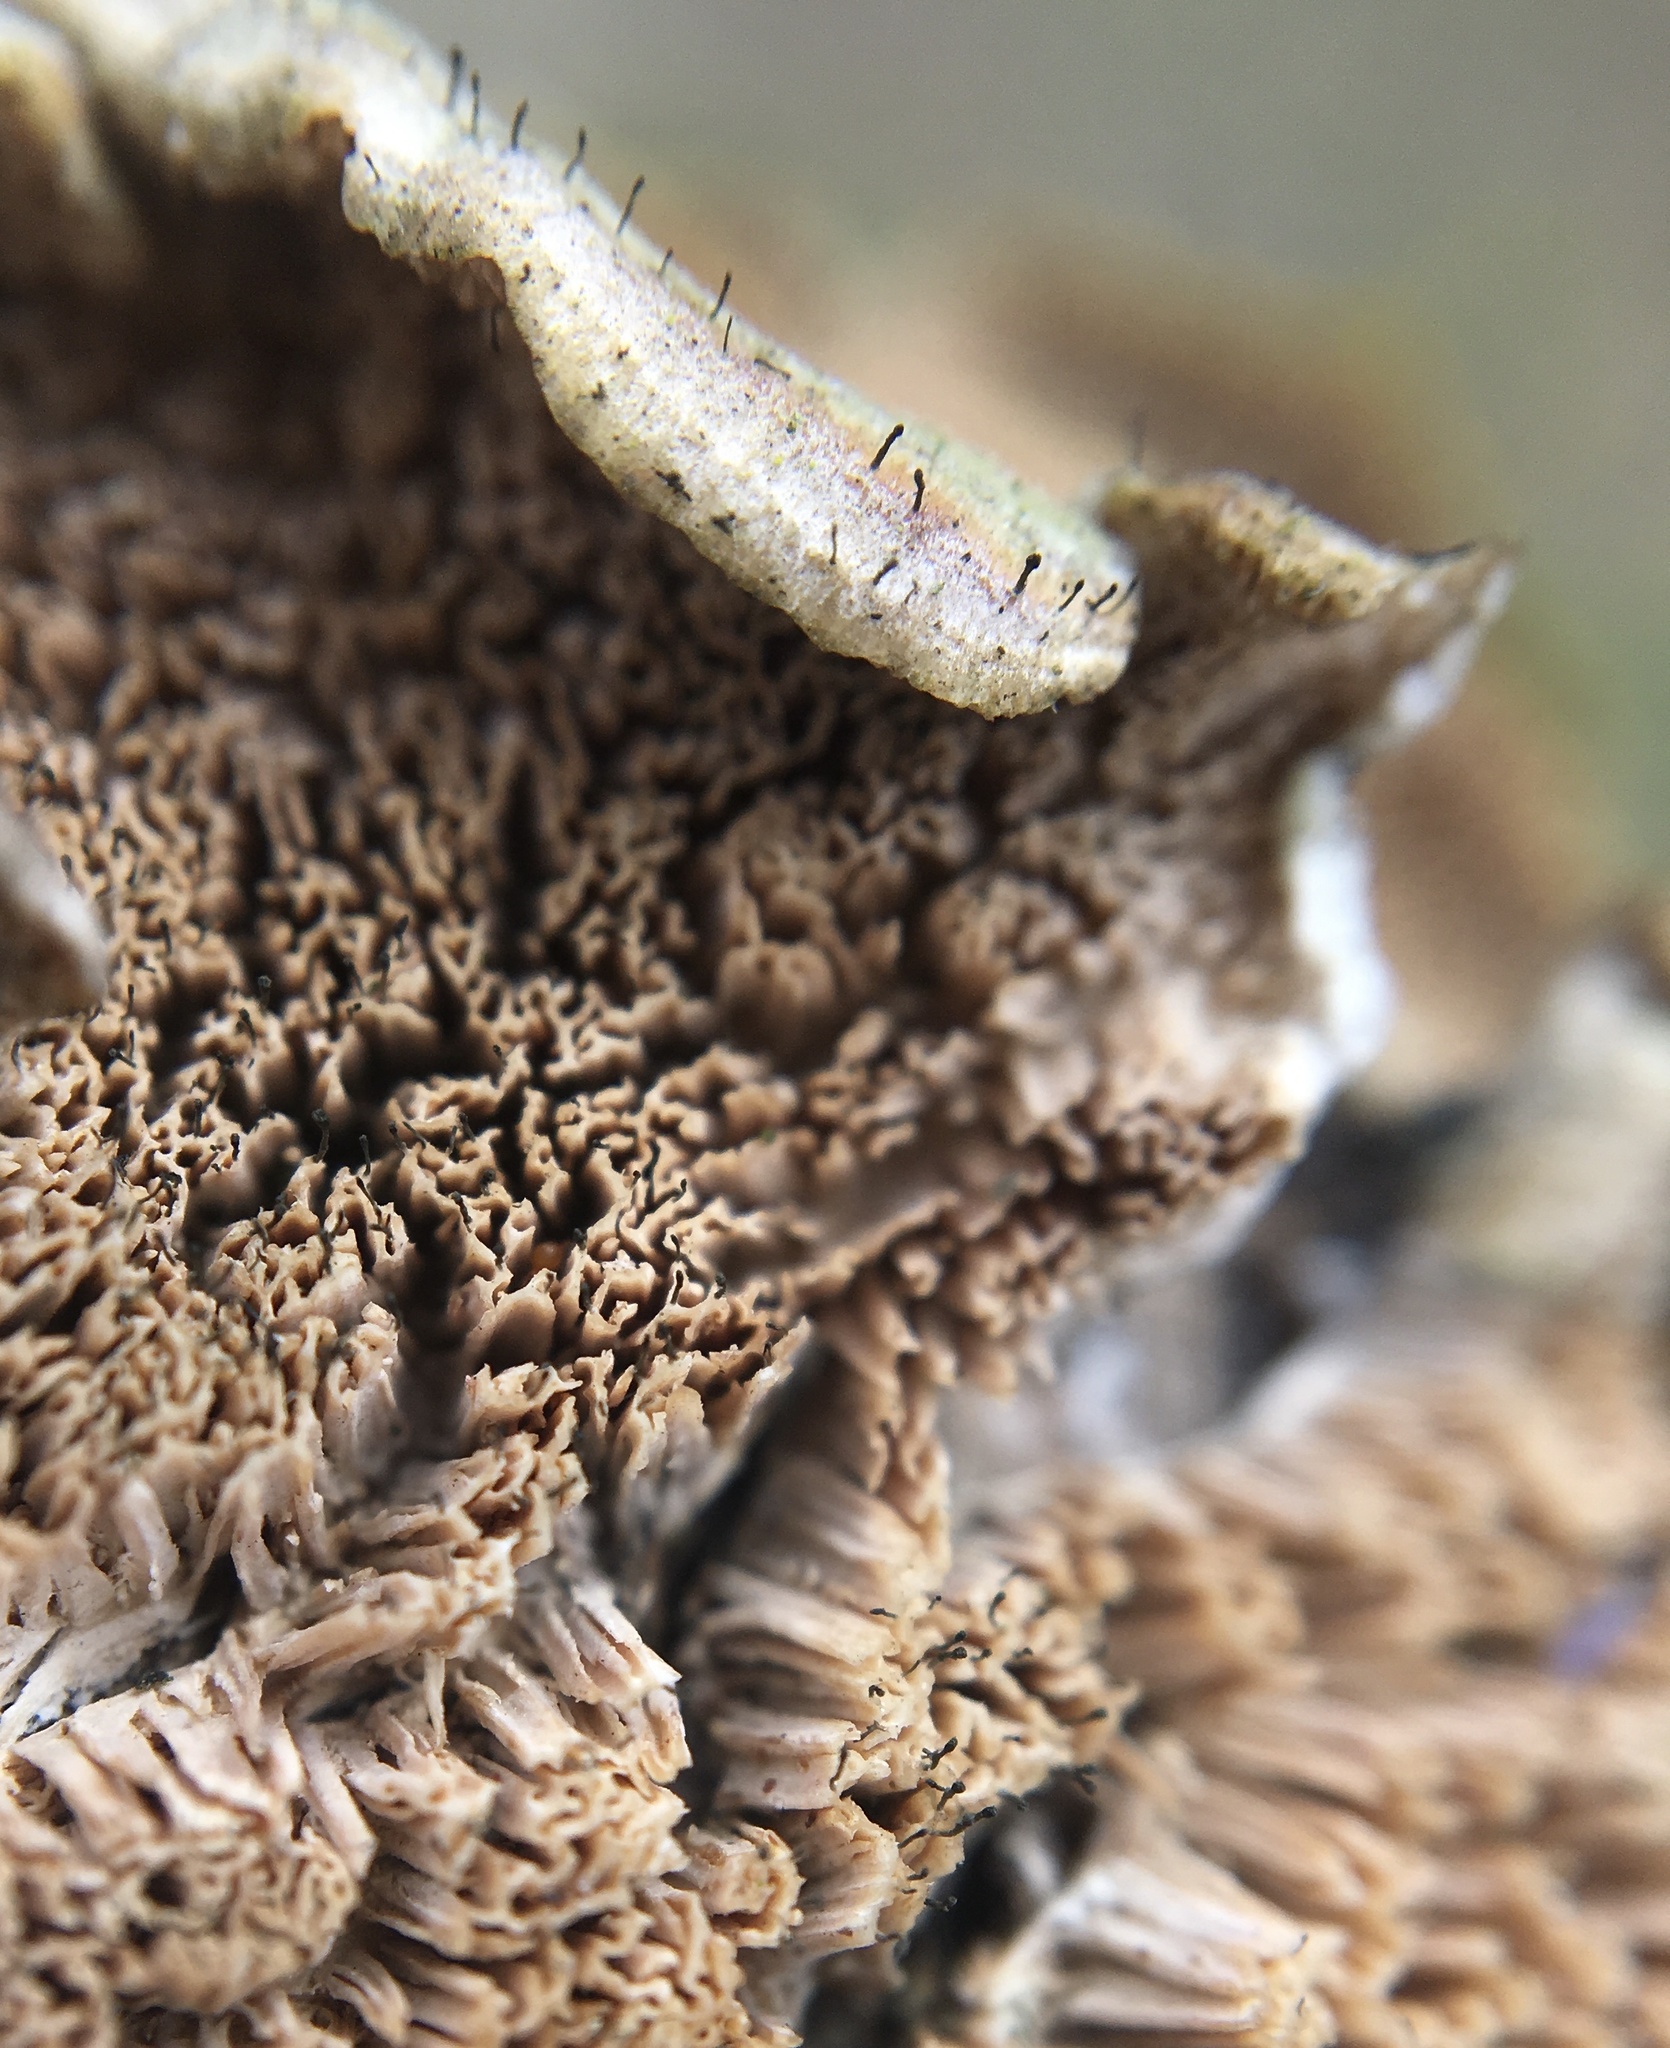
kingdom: Fungi
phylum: Ascomycota
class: Eurotiomycetes
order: Mycocaliciales
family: Mycocaliciaceae
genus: Phaeocalicium
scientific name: Phaeocalicium polyporaeum
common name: Fairy pins
